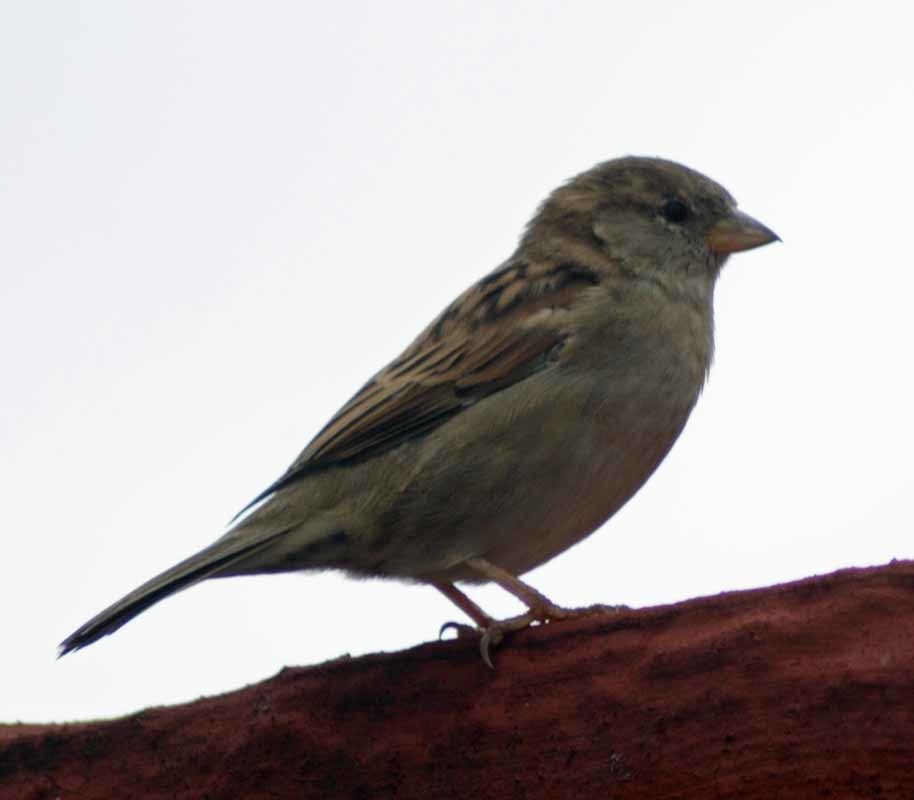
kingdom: Animalia
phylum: Chordata
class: Aves
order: Passeriformes
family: Passeridae
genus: Passer
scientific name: Passer domesticus
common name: House sparrow
